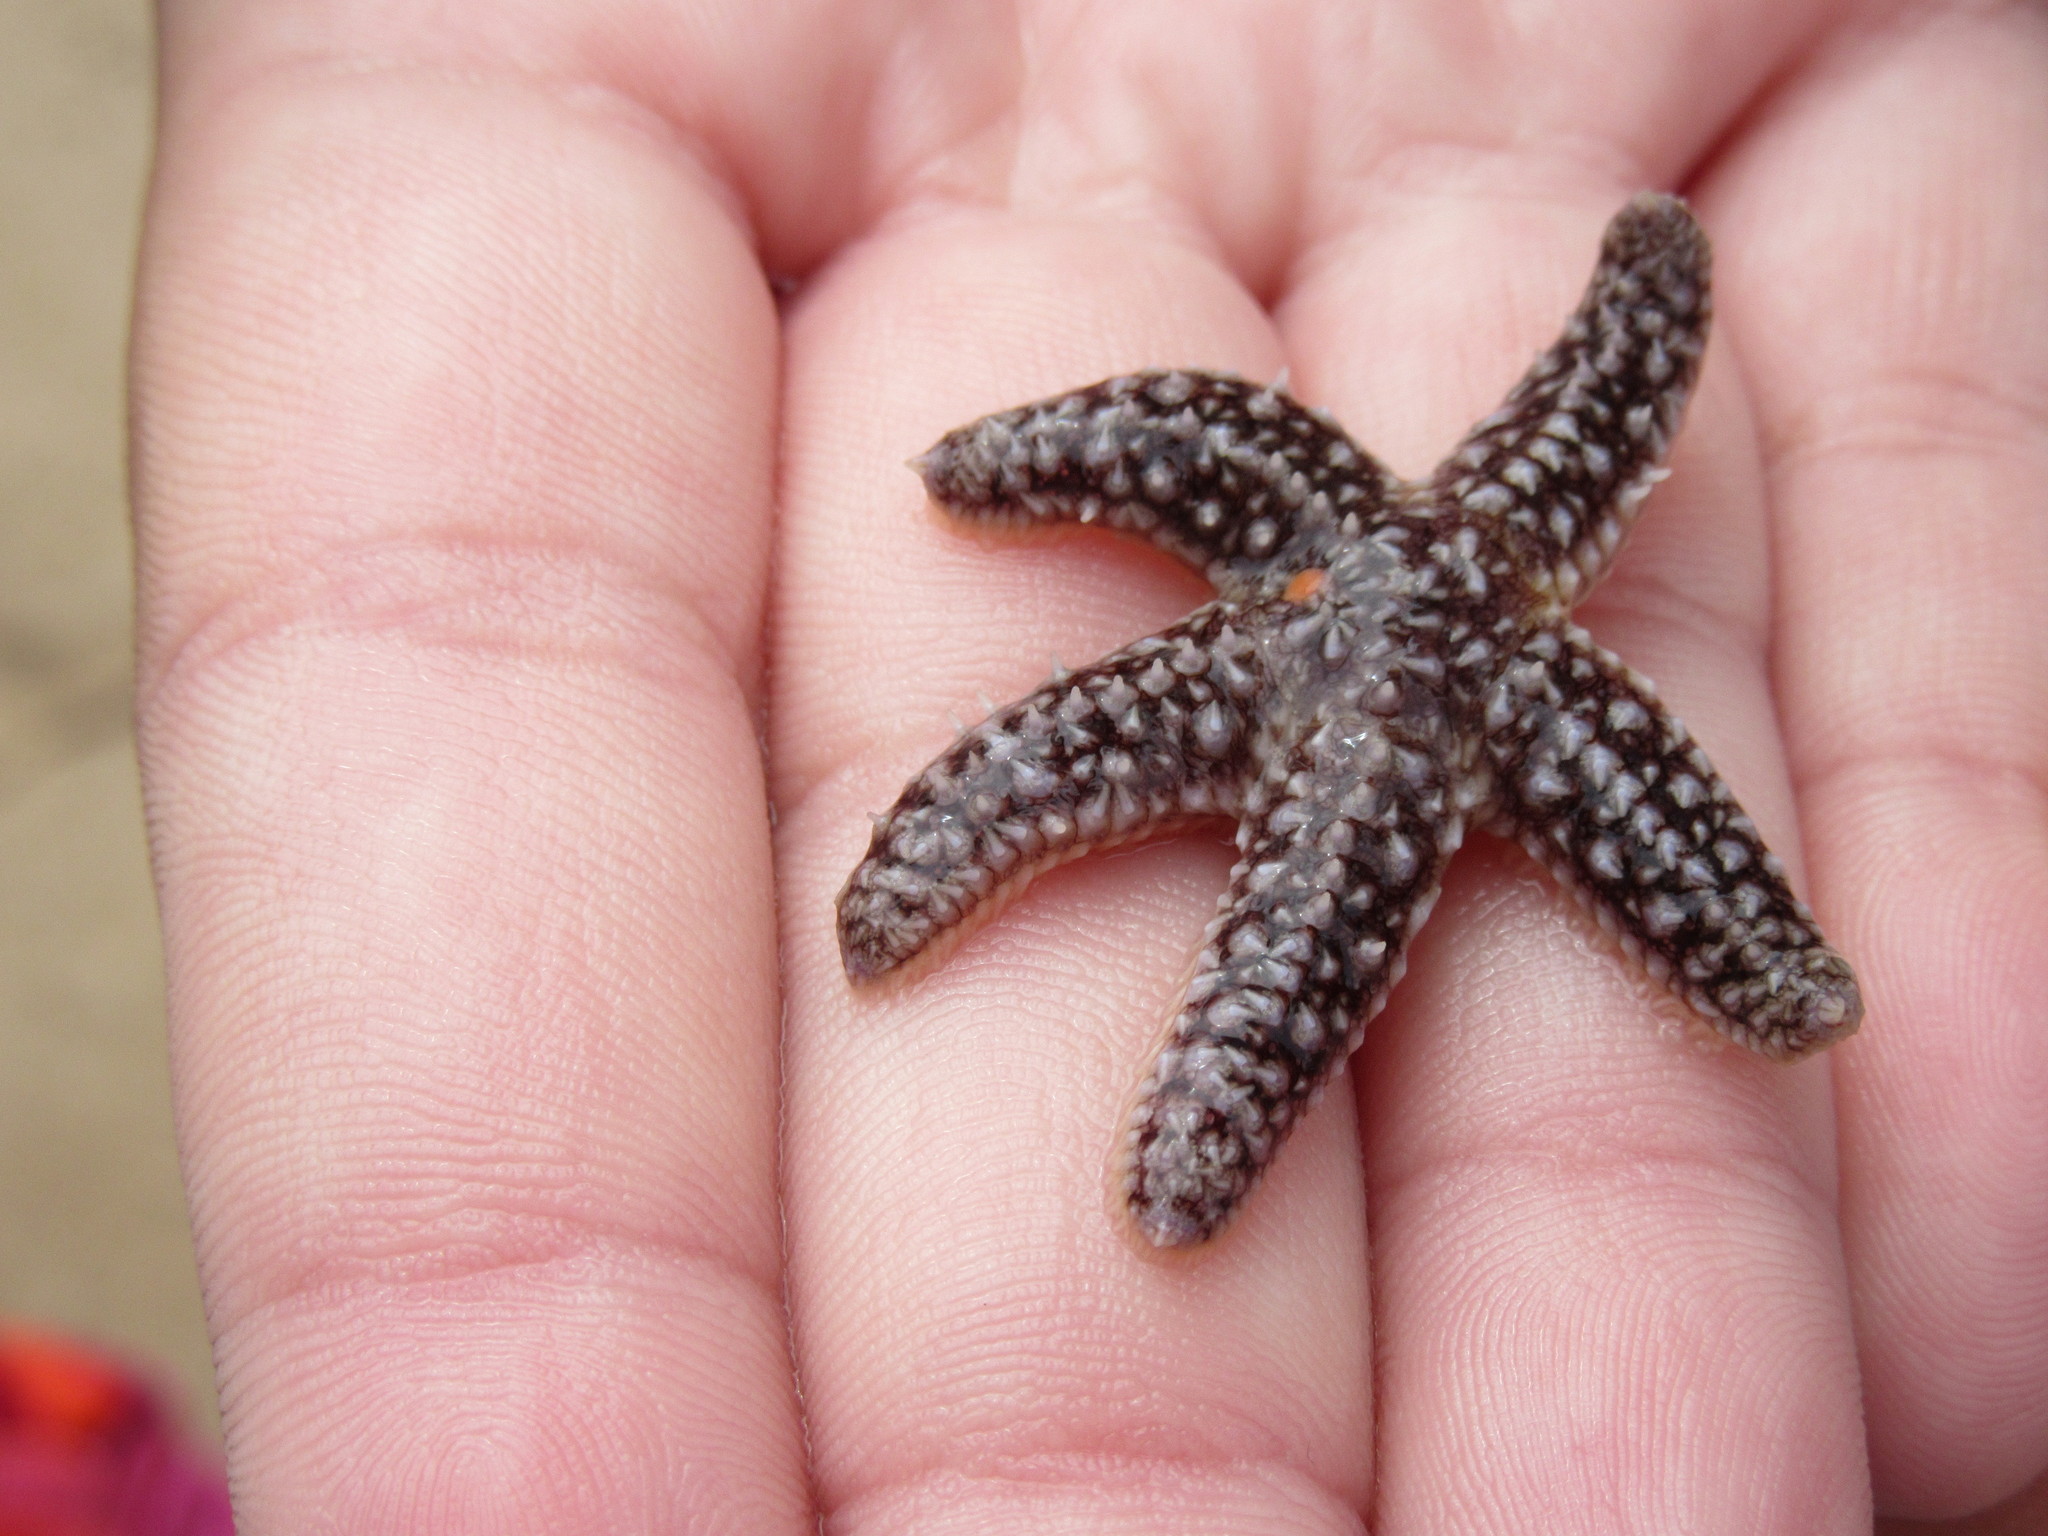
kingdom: Animalia
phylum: Echinodermata
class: Asteroidea
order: Forcipulatida
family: Asteriidae
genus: Asterias
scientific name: Asterias rubens
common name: Common starfish
